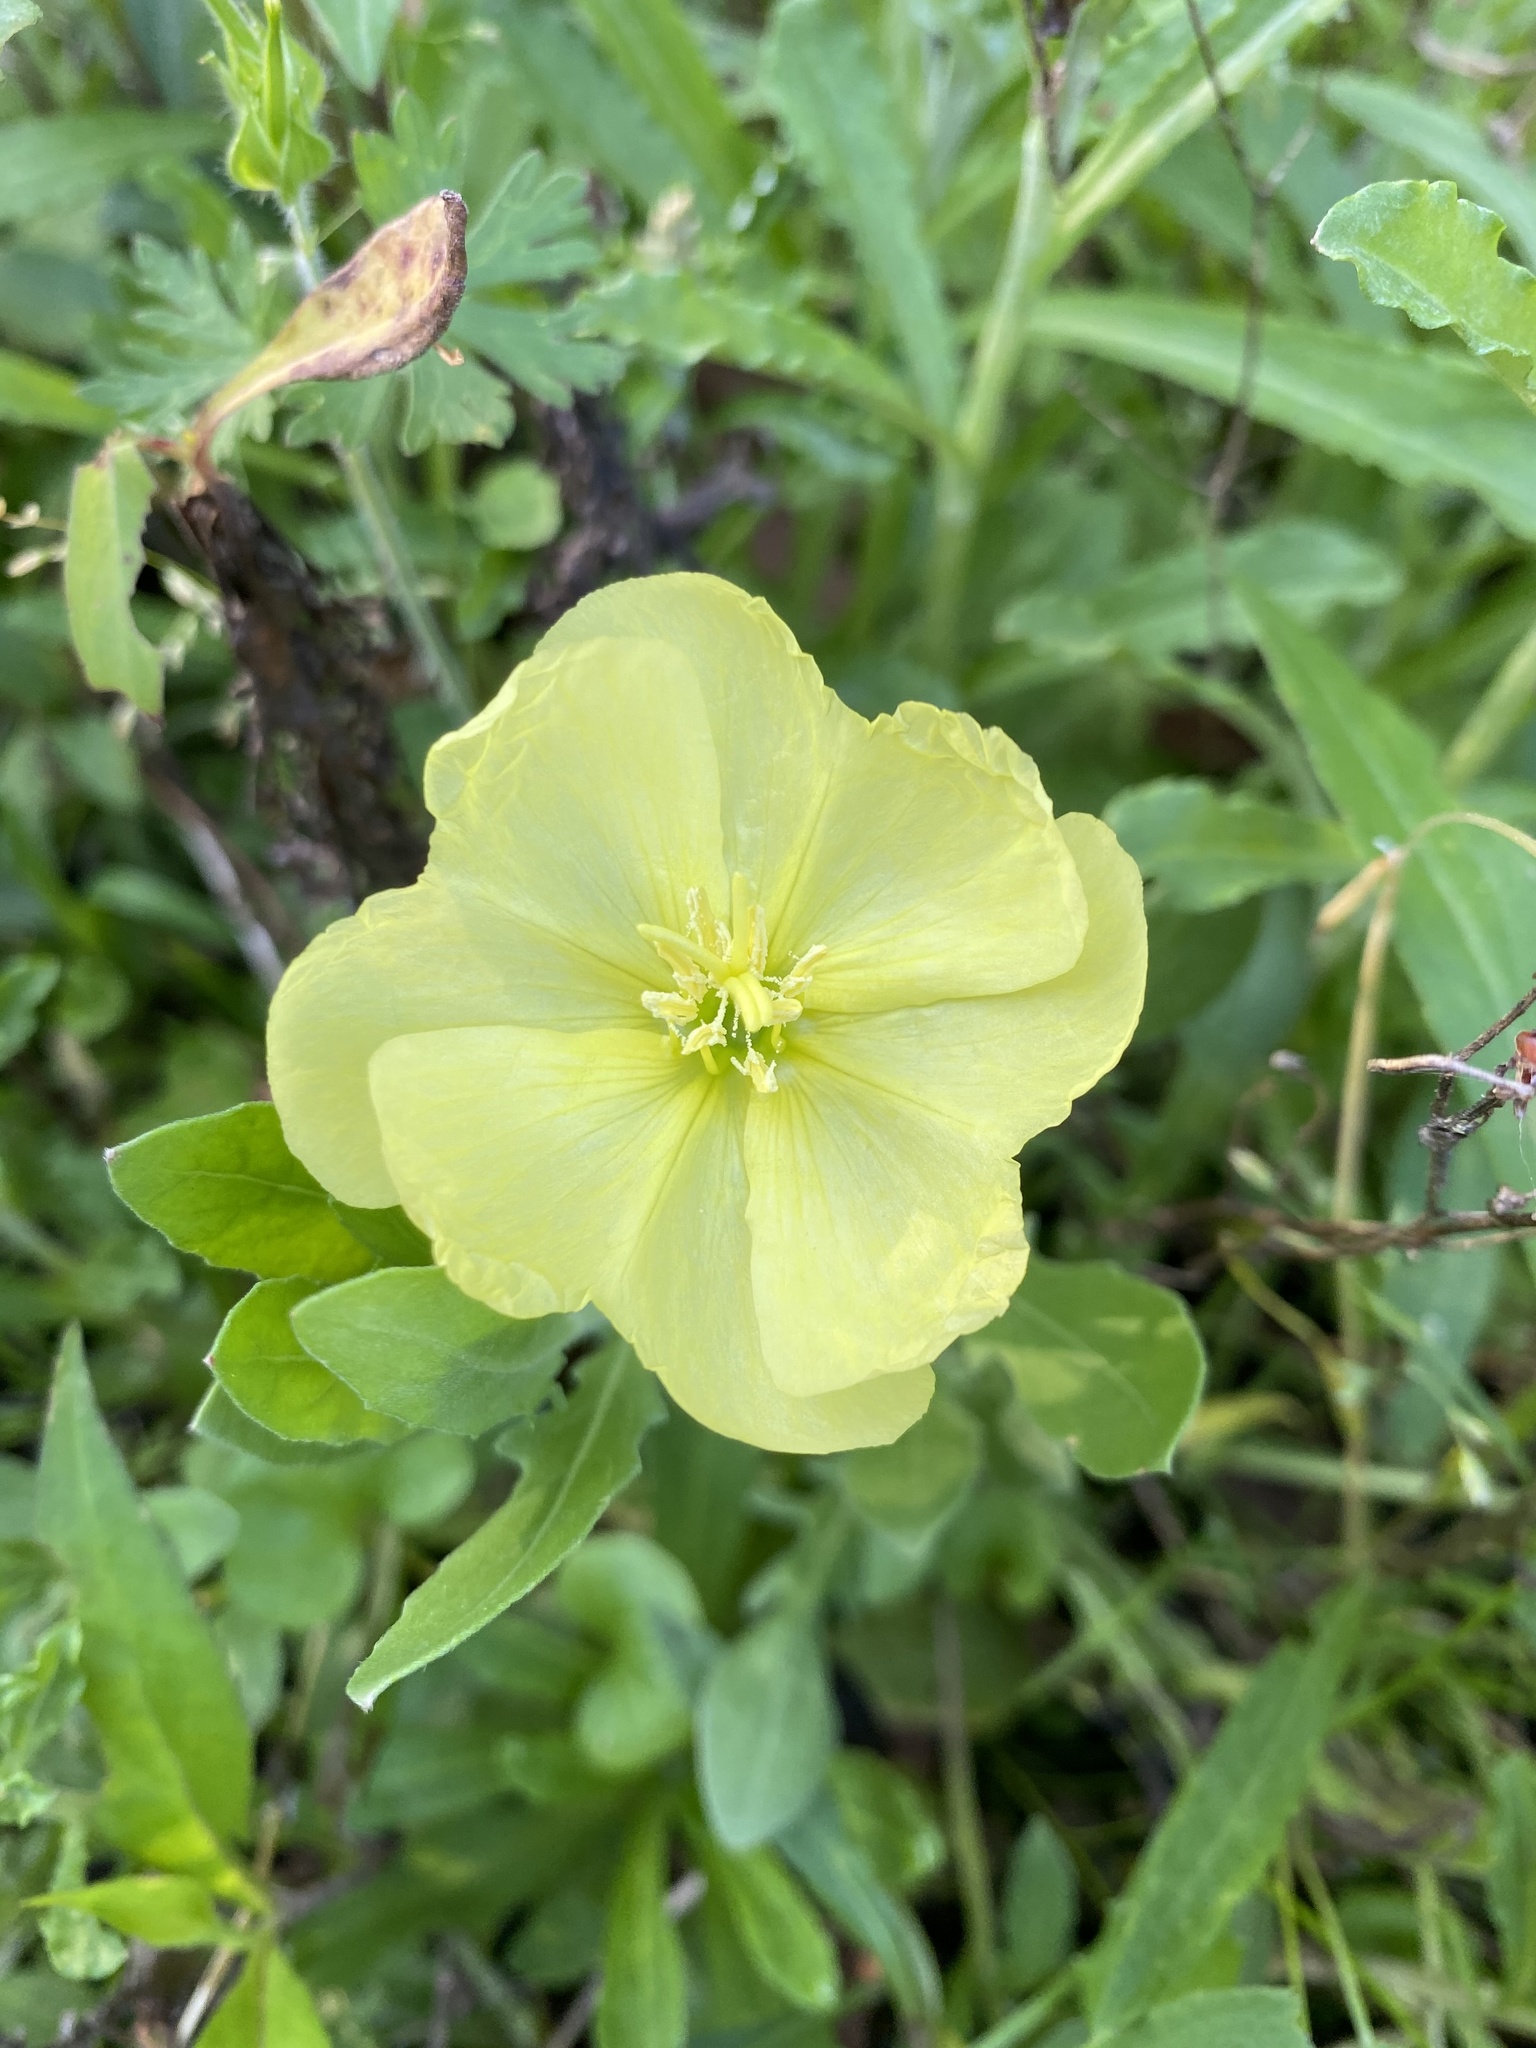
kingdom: Plantae
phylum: Tracheophyta
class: Magnoliopsida
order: Myrtales
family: Onagraceae
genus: Oenothera
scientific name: Oenothera laciniata
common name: Cut-leaved evening-primrose
